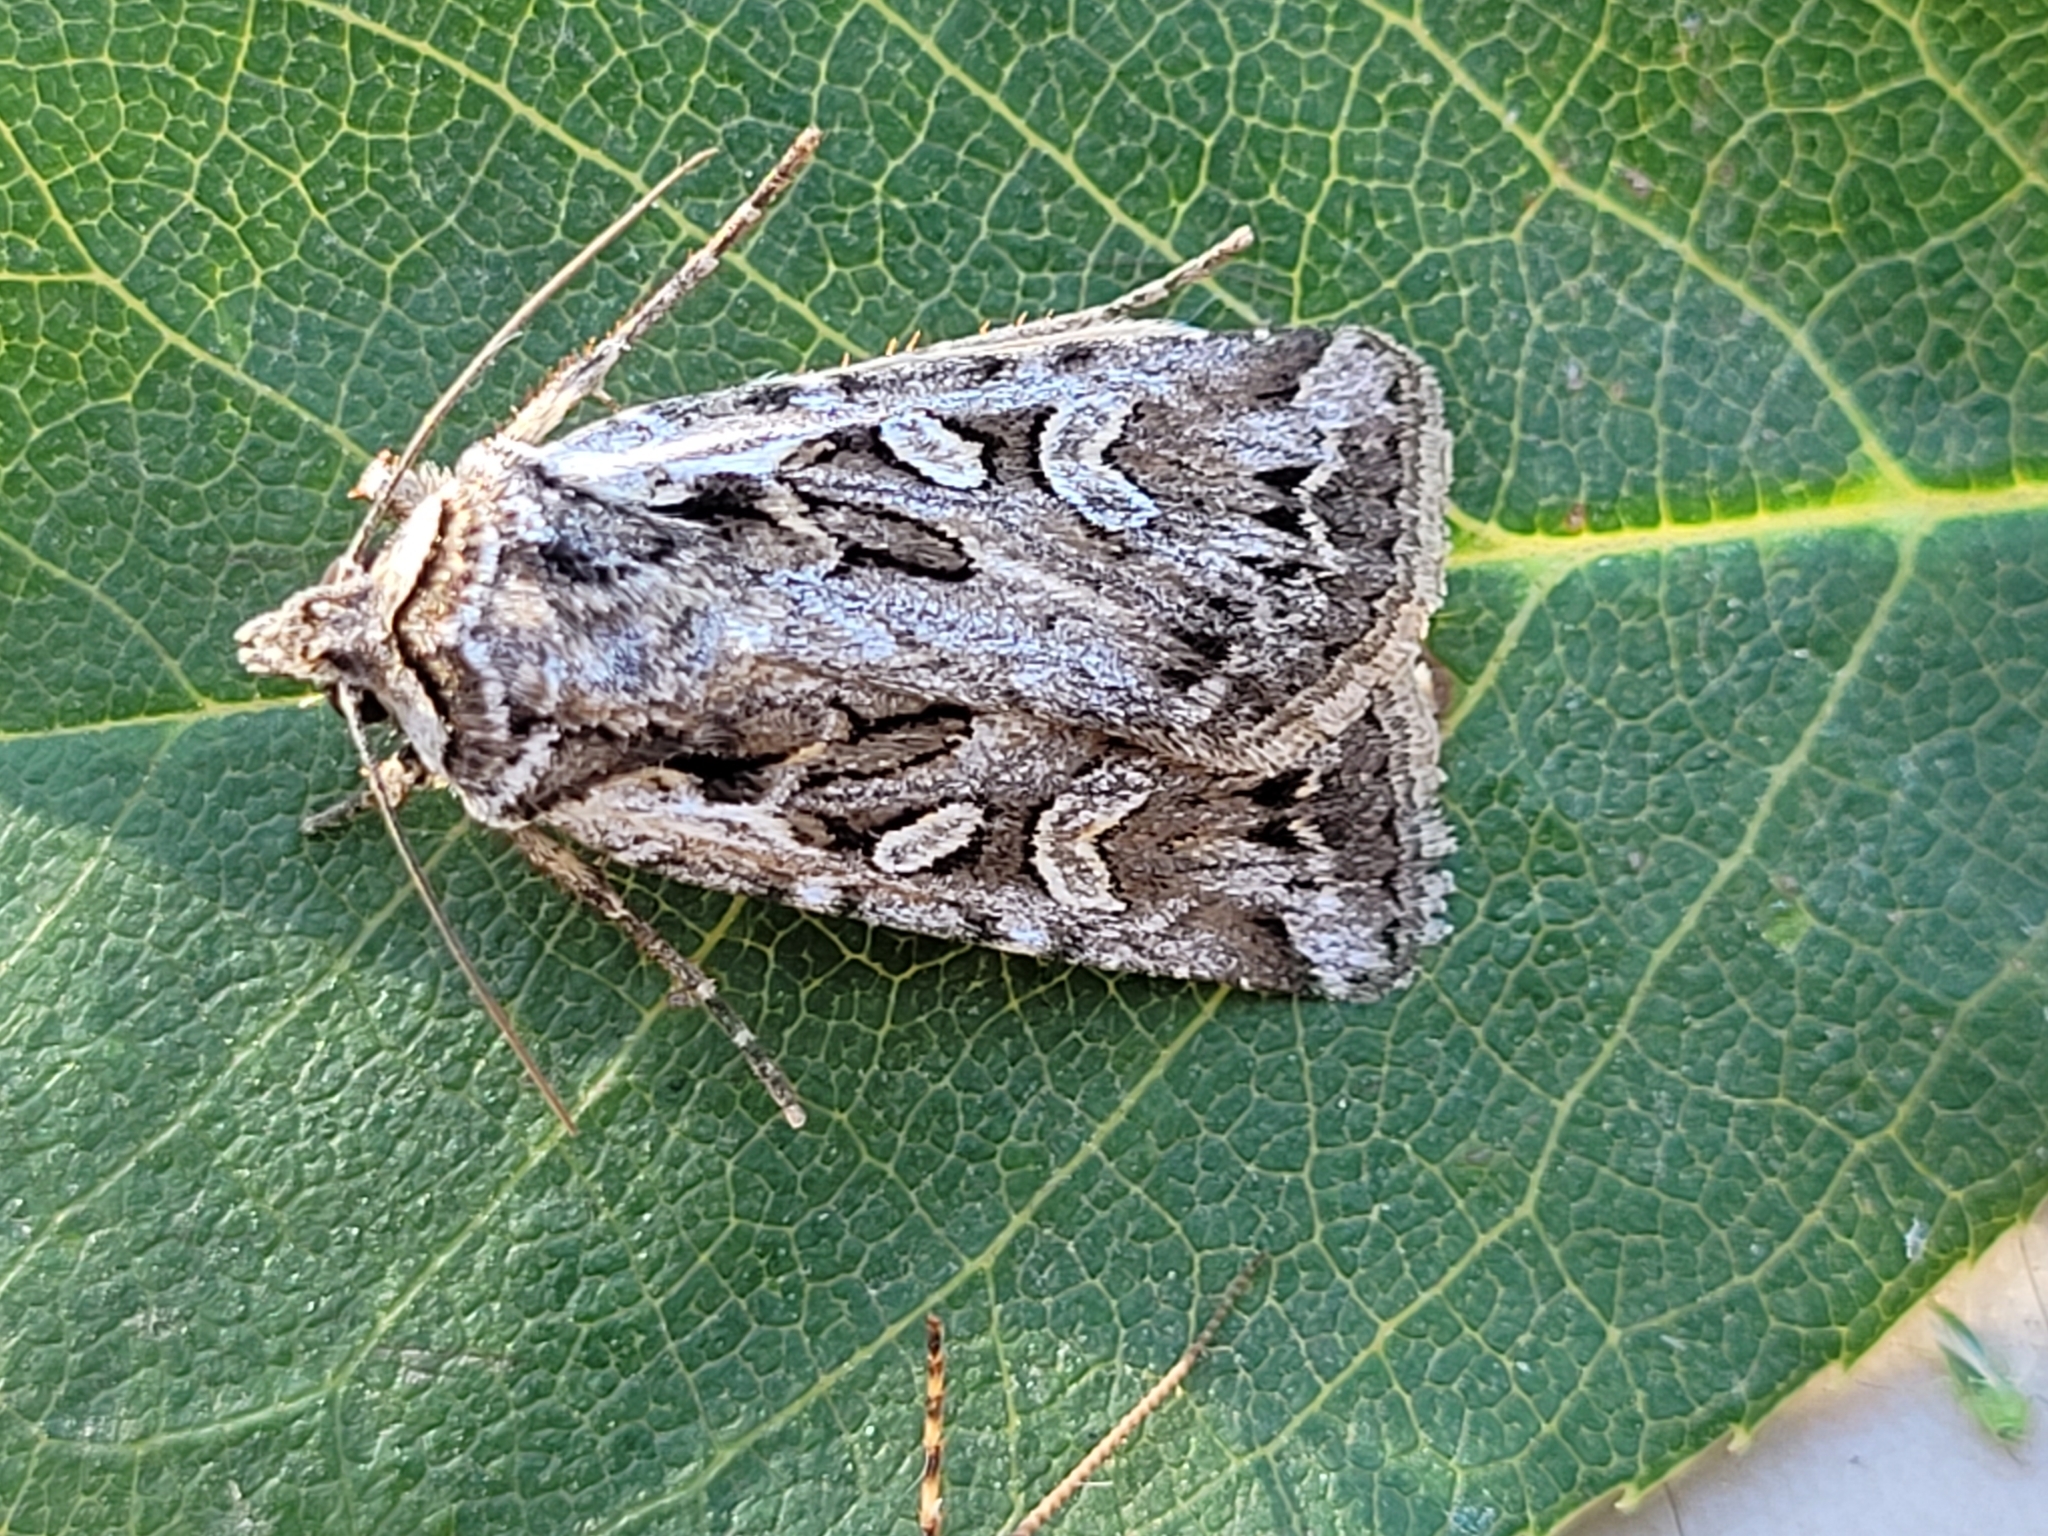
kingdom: Animalia
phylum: Arthropoda
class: Insecta
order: Lepidoptera
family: Noctuidae
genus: Euxoa
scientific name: Euxoa plagigera
